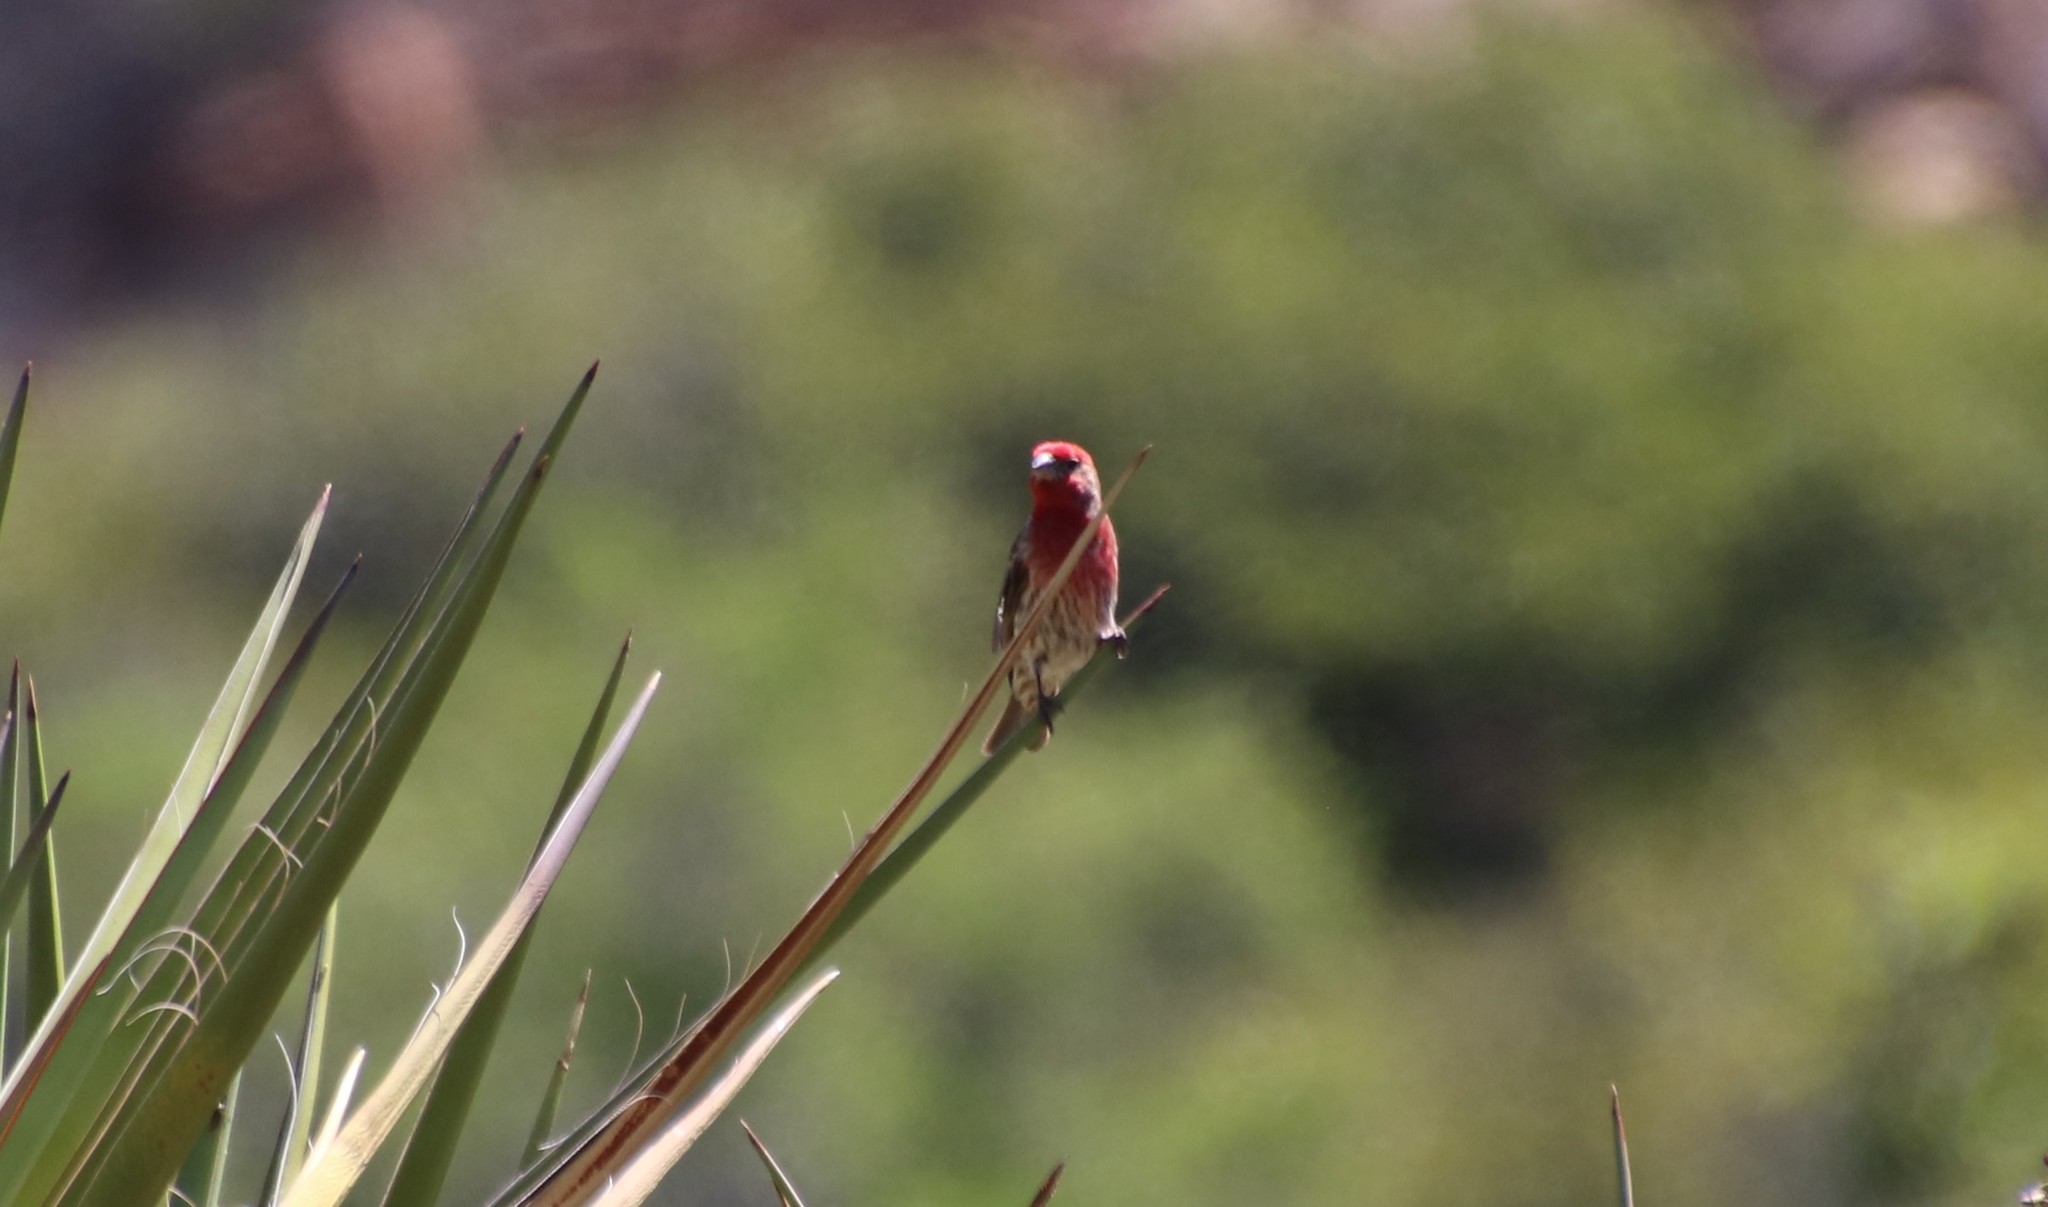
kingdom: Animalia
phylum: Chordata
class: Aves
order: Passeriformes
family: Fringillidae
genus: Haemorhous
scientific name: Haemorhous mexicanus
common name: House finch
